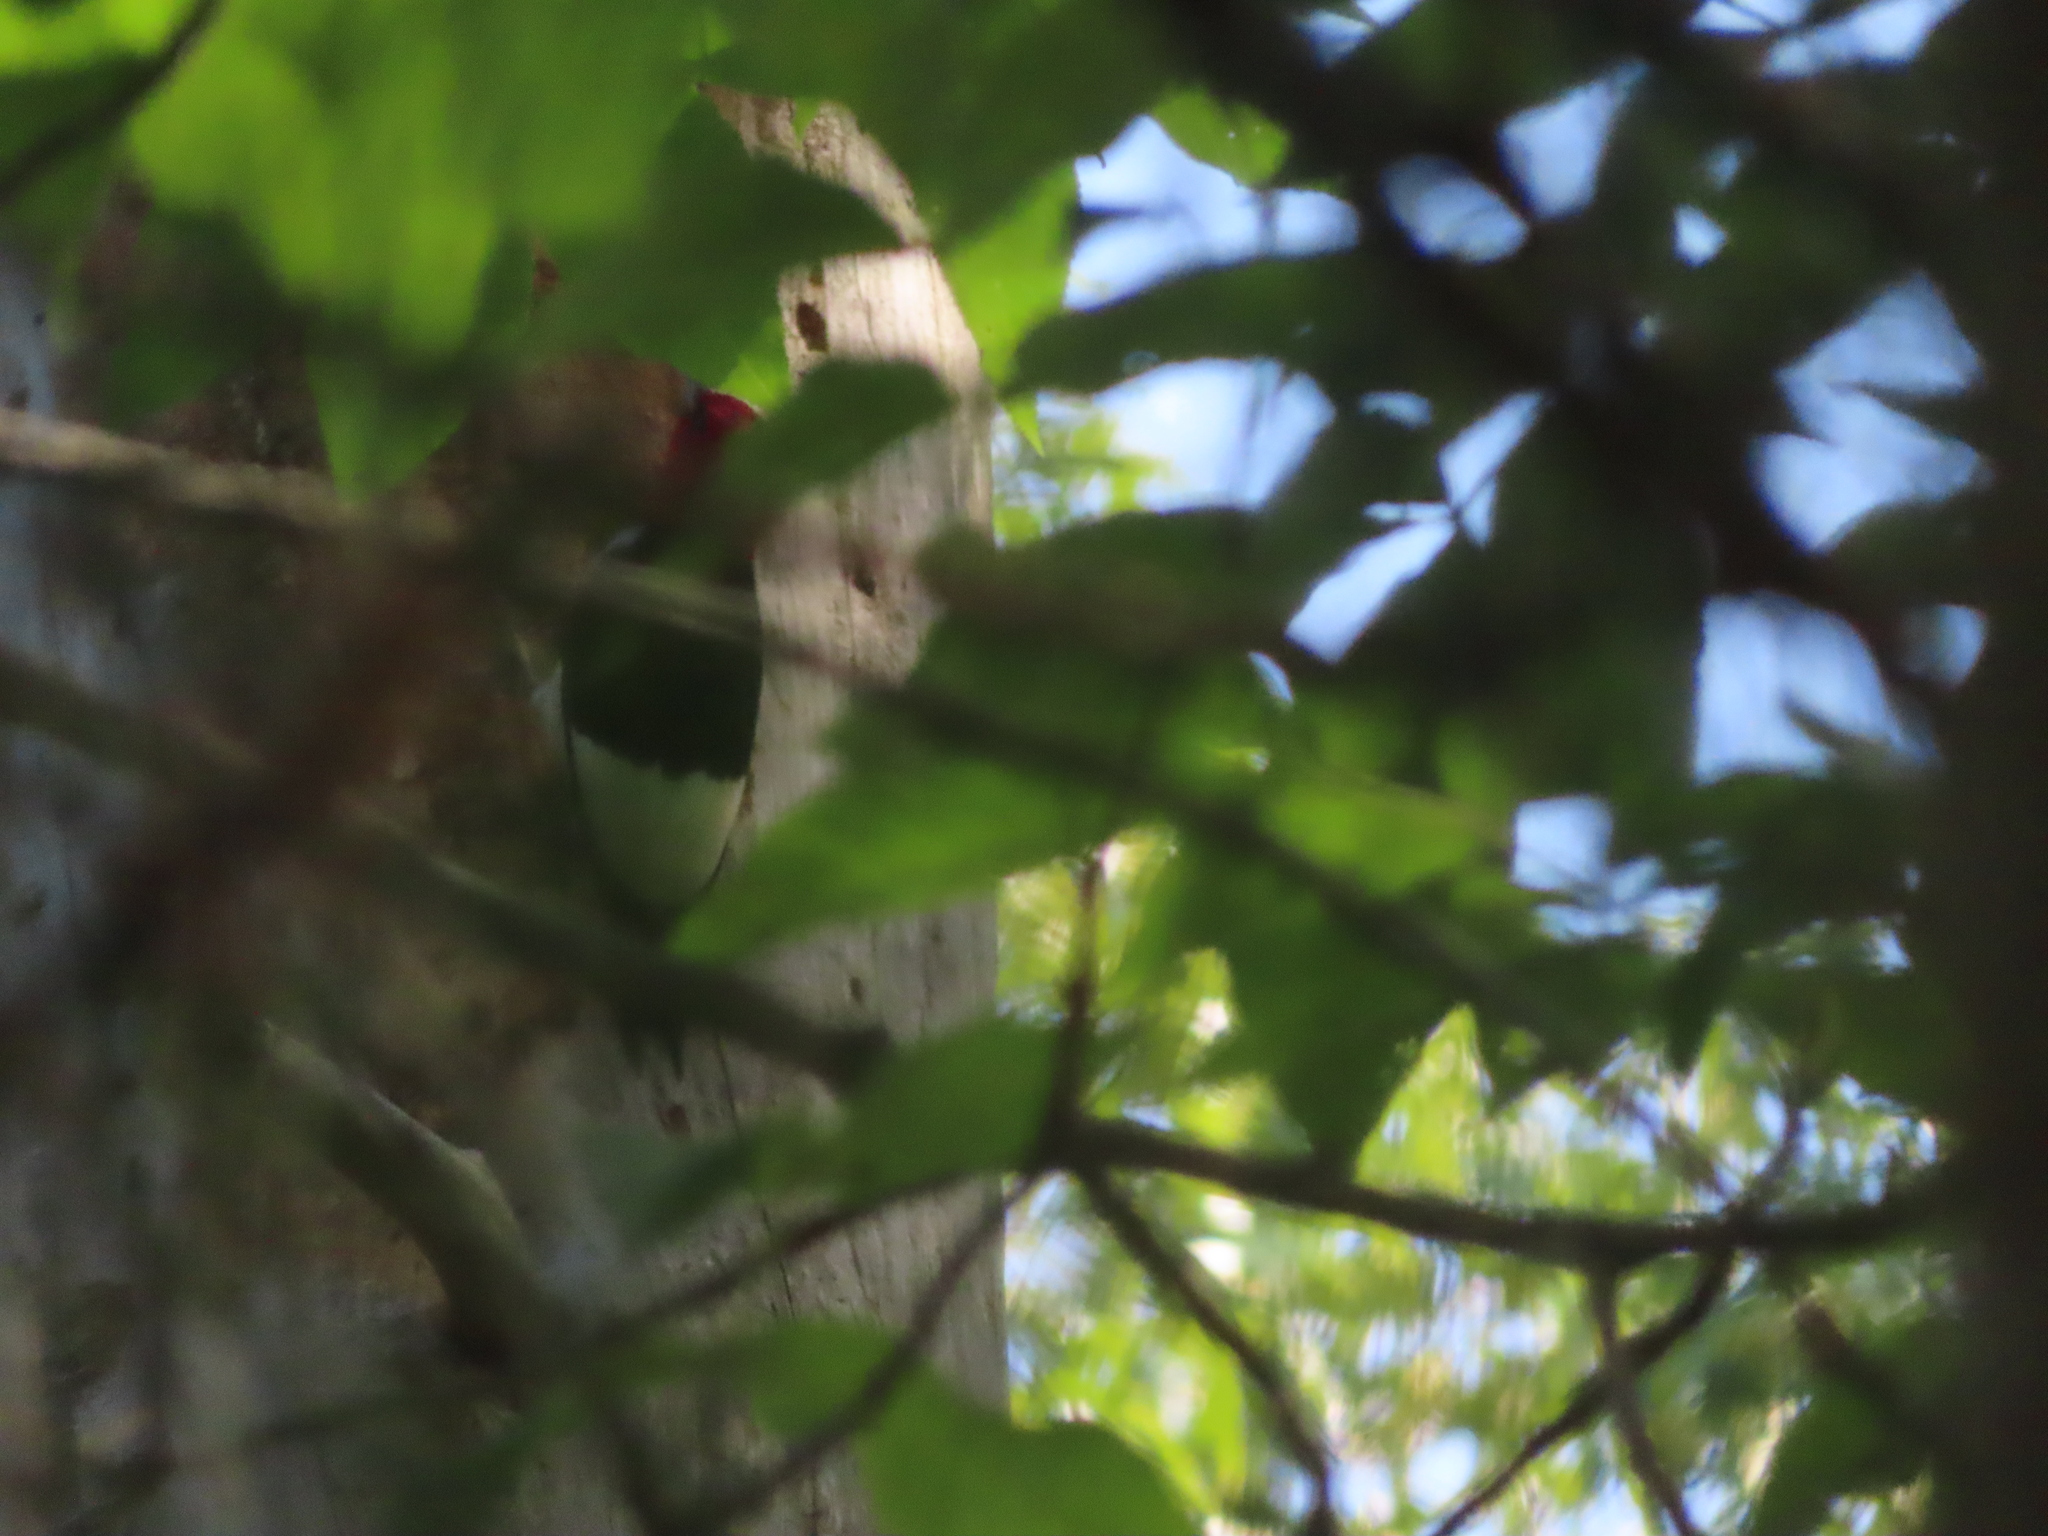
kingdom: Animalia
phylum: Chordata
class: Aves
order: Piciformes
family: Picidae
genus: Melanerpes
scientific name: Melanerpes erythrocephalus
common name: Red-headed woodpecker
